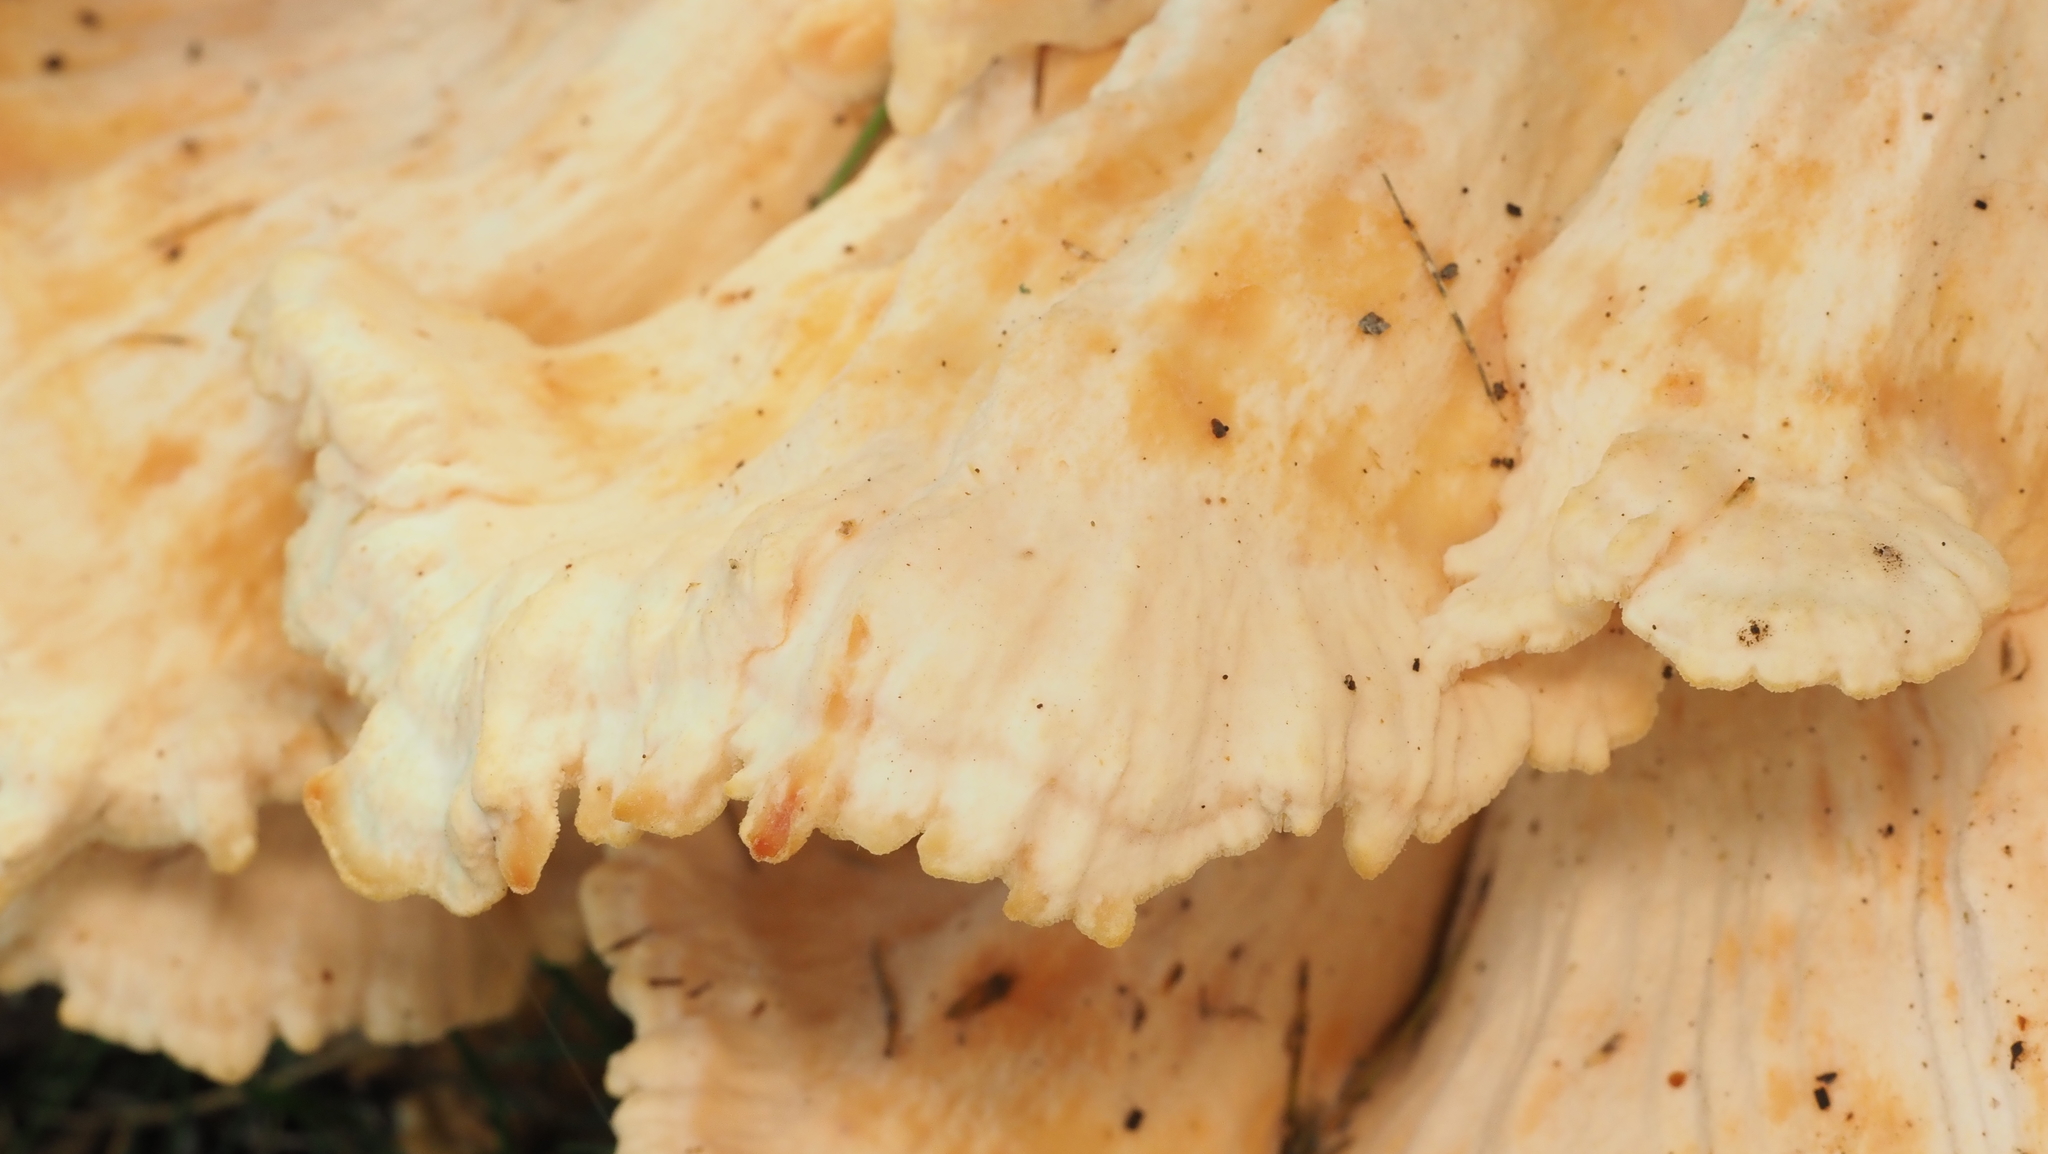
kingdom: Fungi
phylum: Basidiomycota
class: Agaricomycetes
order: Polyporales
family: Laetiporaceae
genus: Laetiporus
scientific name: Laetiporus sulphureus
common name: Chicken of the woods
